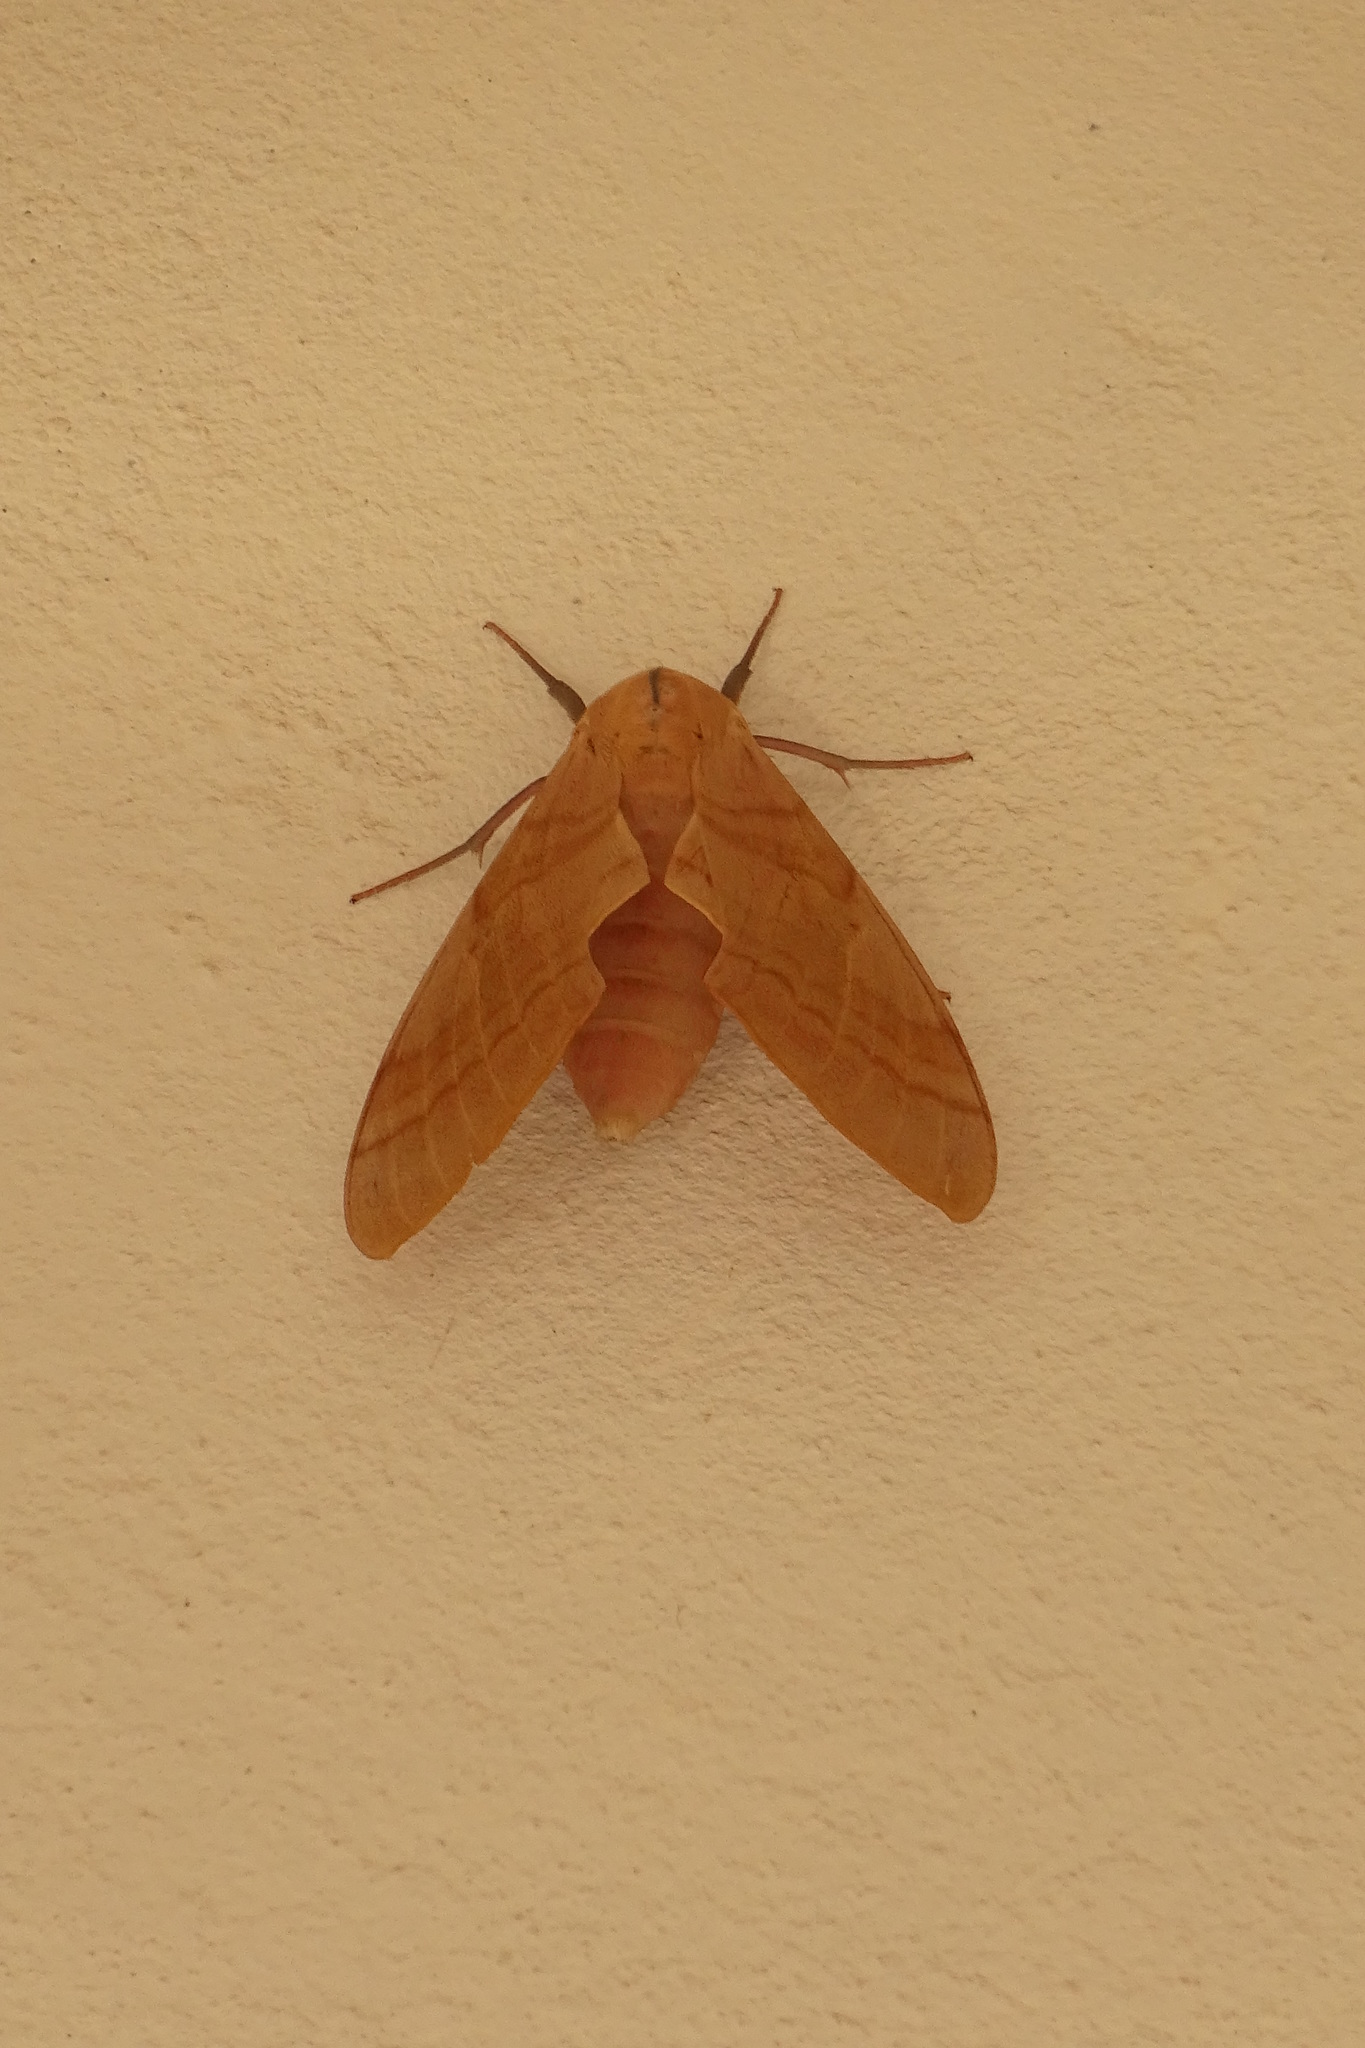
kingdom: Animalia
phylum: Arthropoda
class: Insecta
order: Lepidoptera
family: Sphingidae
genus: Clanis
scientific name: Clanis phalaris
